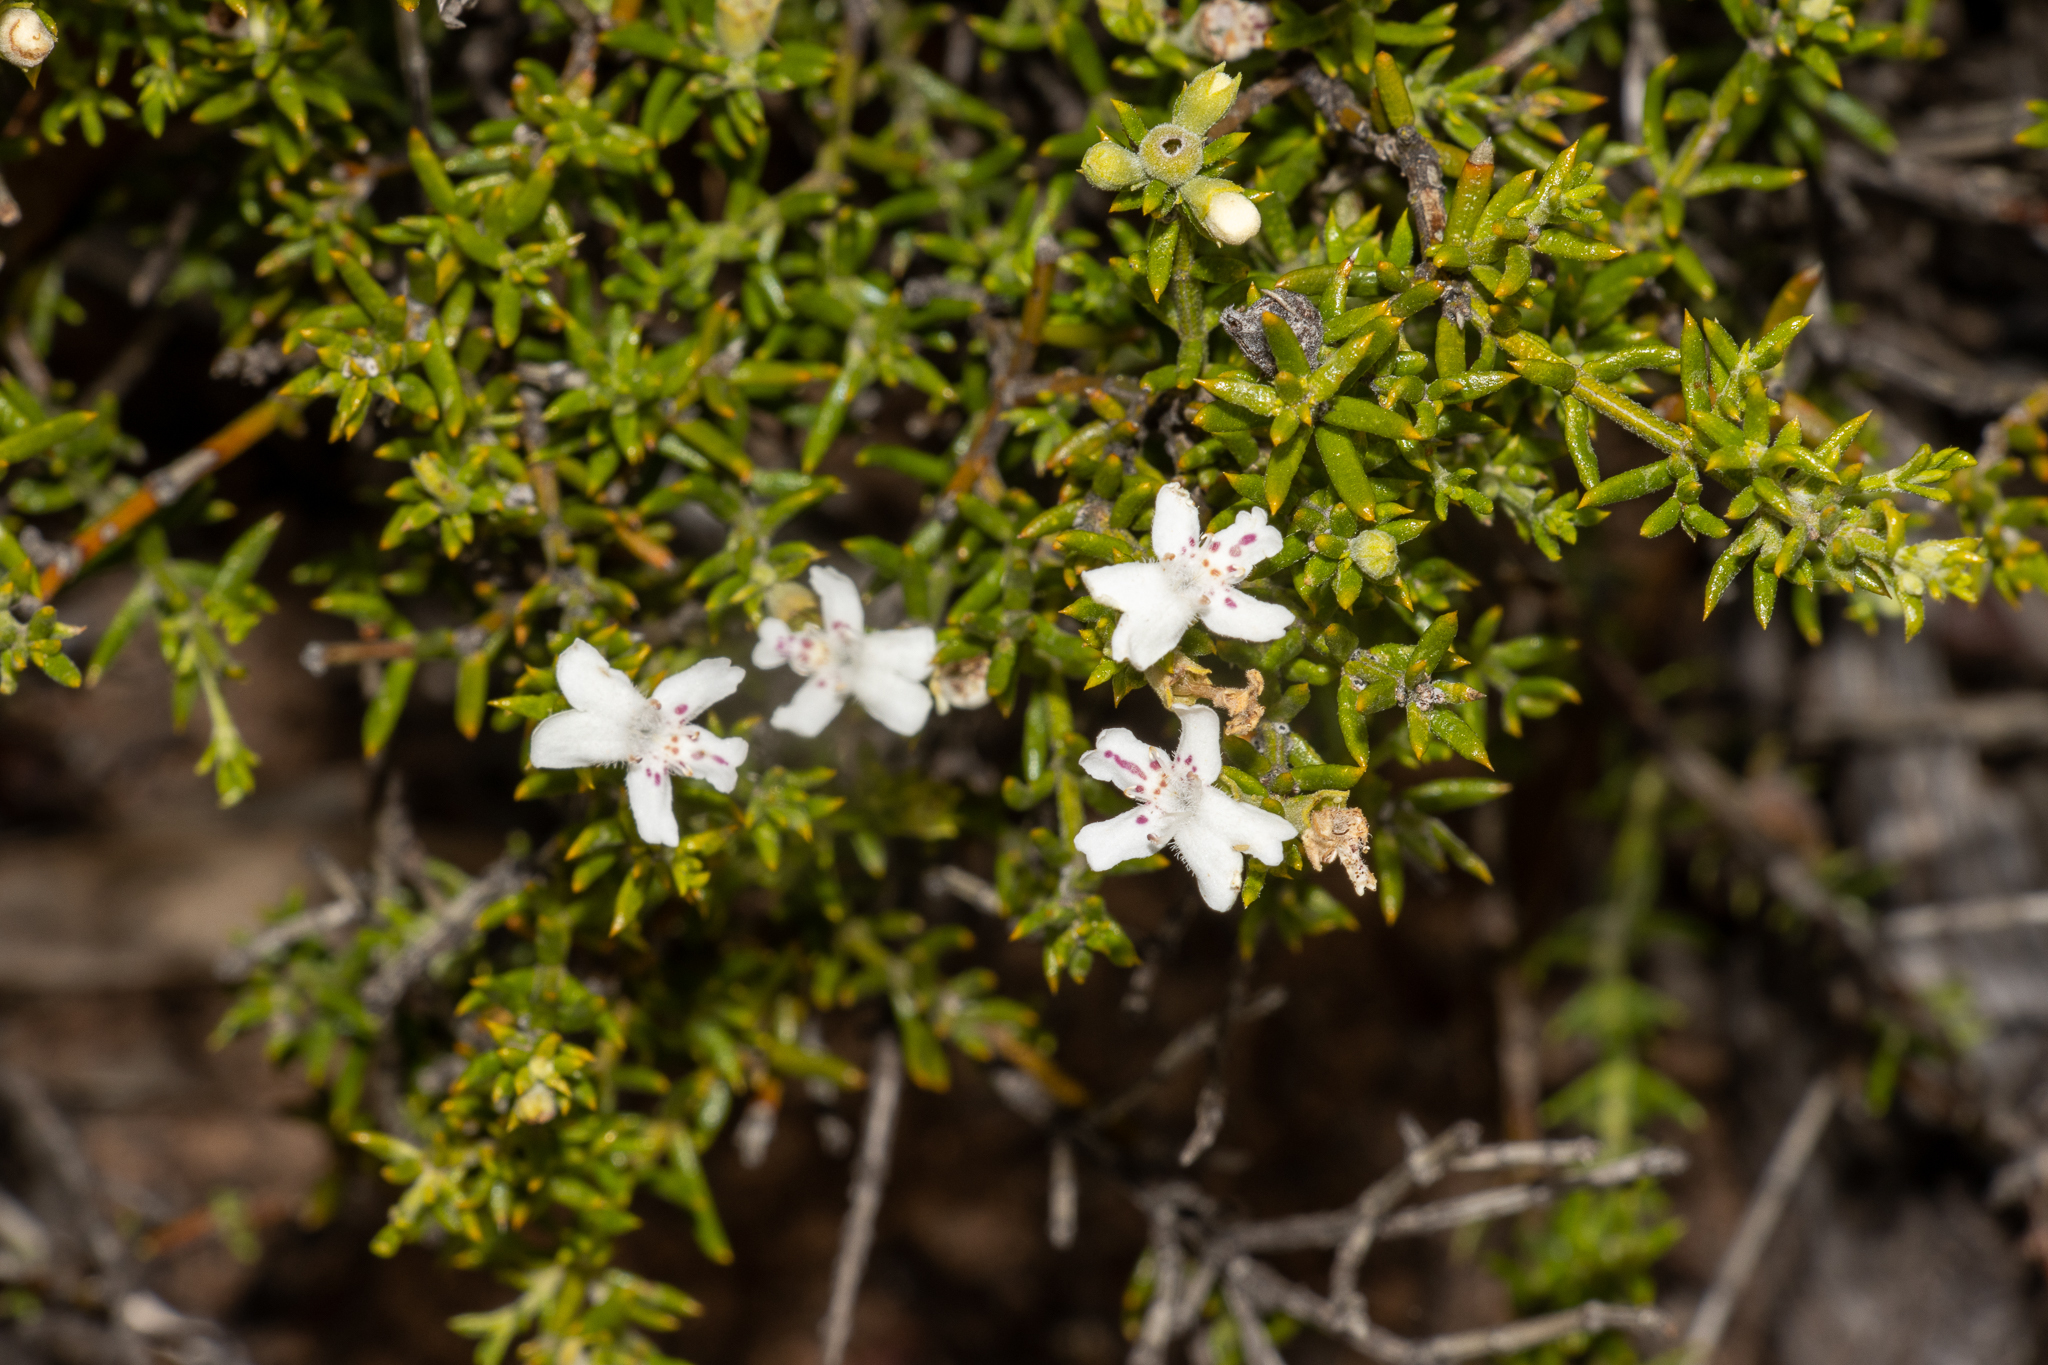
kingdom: Plantae
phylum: Tracheophyta
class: Magnoliopsida
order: Lamiales
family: Lamiaceae
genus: Westringia
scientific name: Westringia rigida
